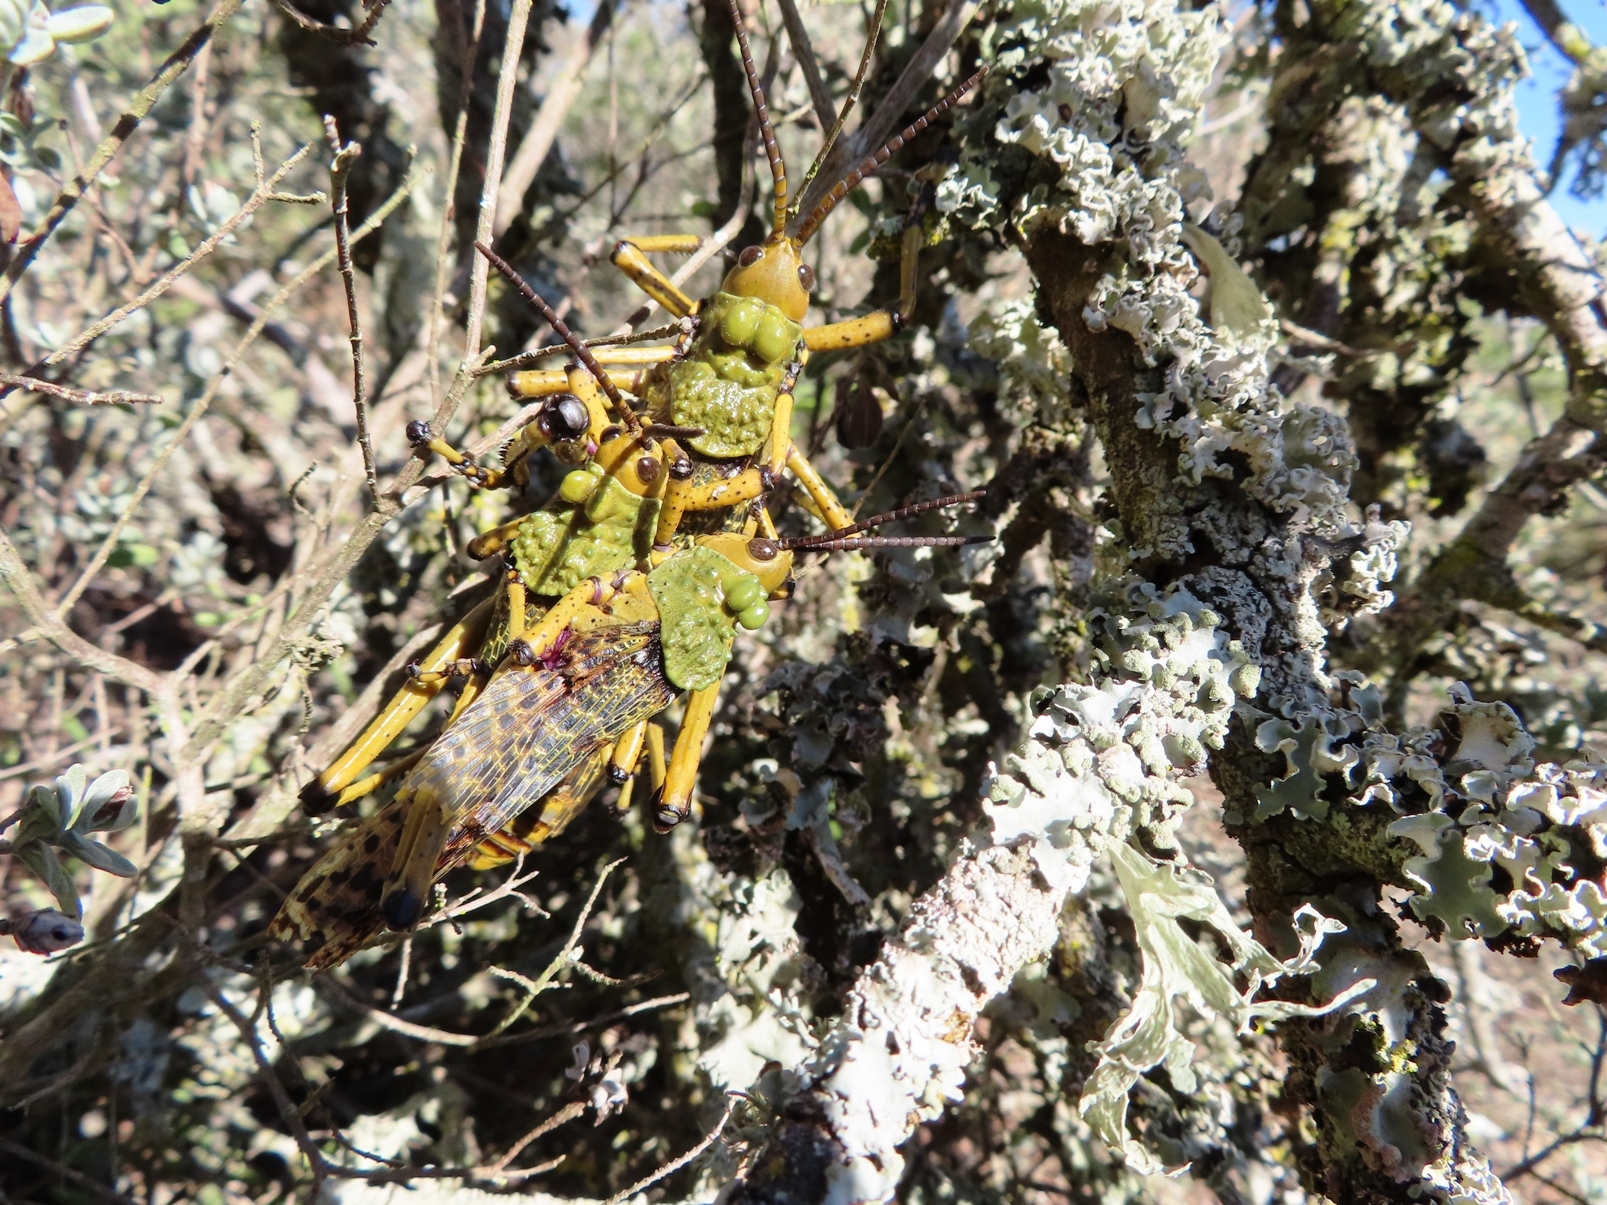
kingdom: Animalia
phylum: Arthropoda
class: Insecta
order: Orthoptera
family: Pyrgomorphidae
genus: Phymateus
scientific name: Phymateus leprosus
